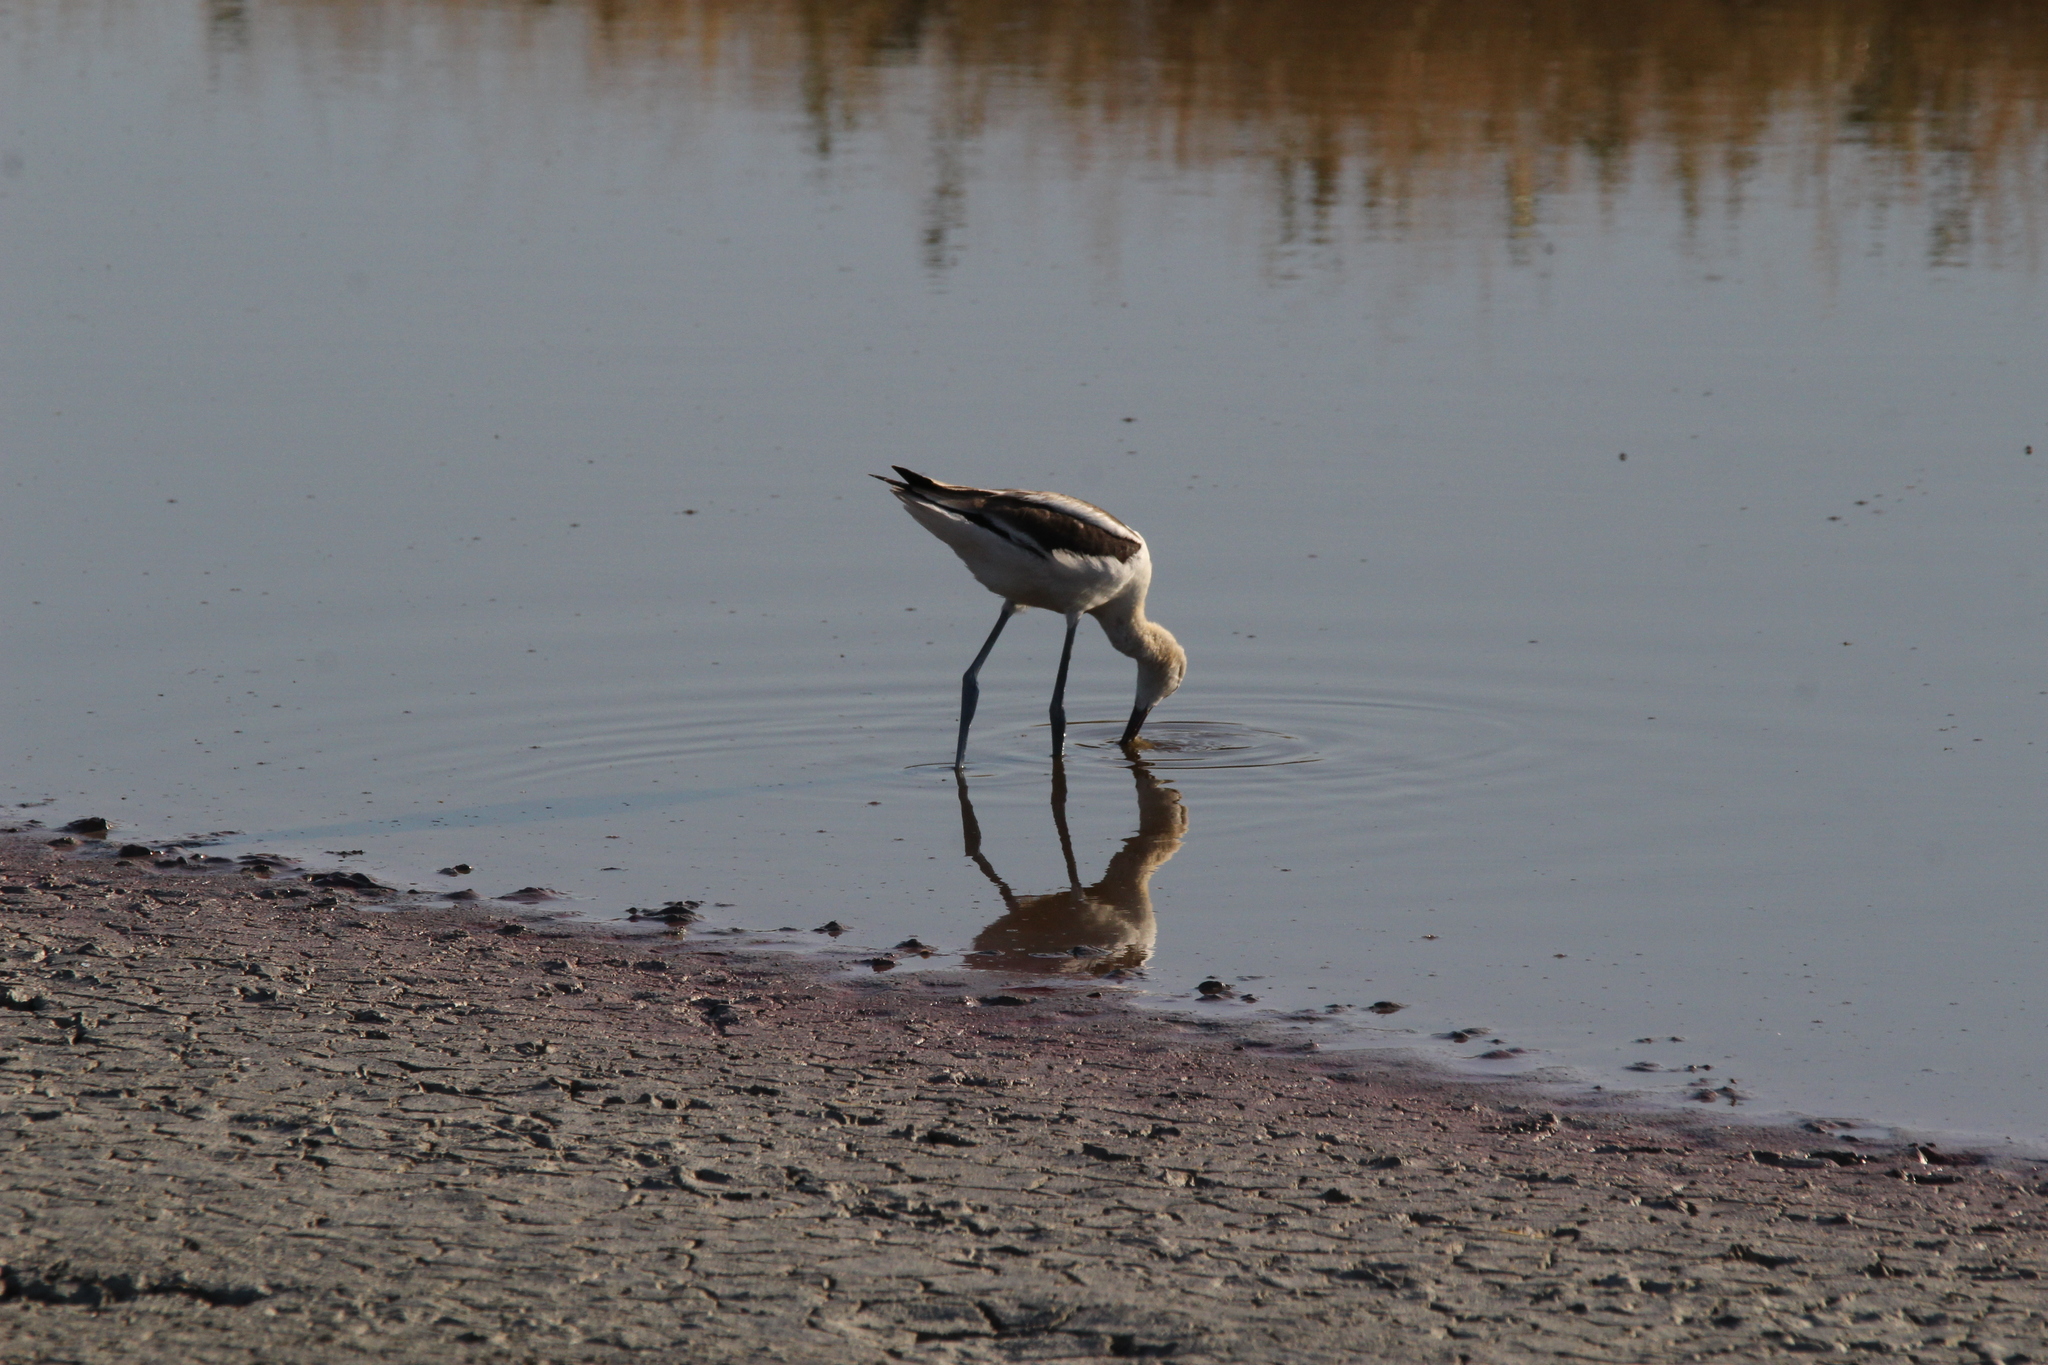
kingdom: Animalia
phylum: Chordata
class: Aves
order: Charadriiformes
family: Recurvirostridae
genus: Recurvirostra
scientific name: Recurvirostra americana
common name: American avocet
